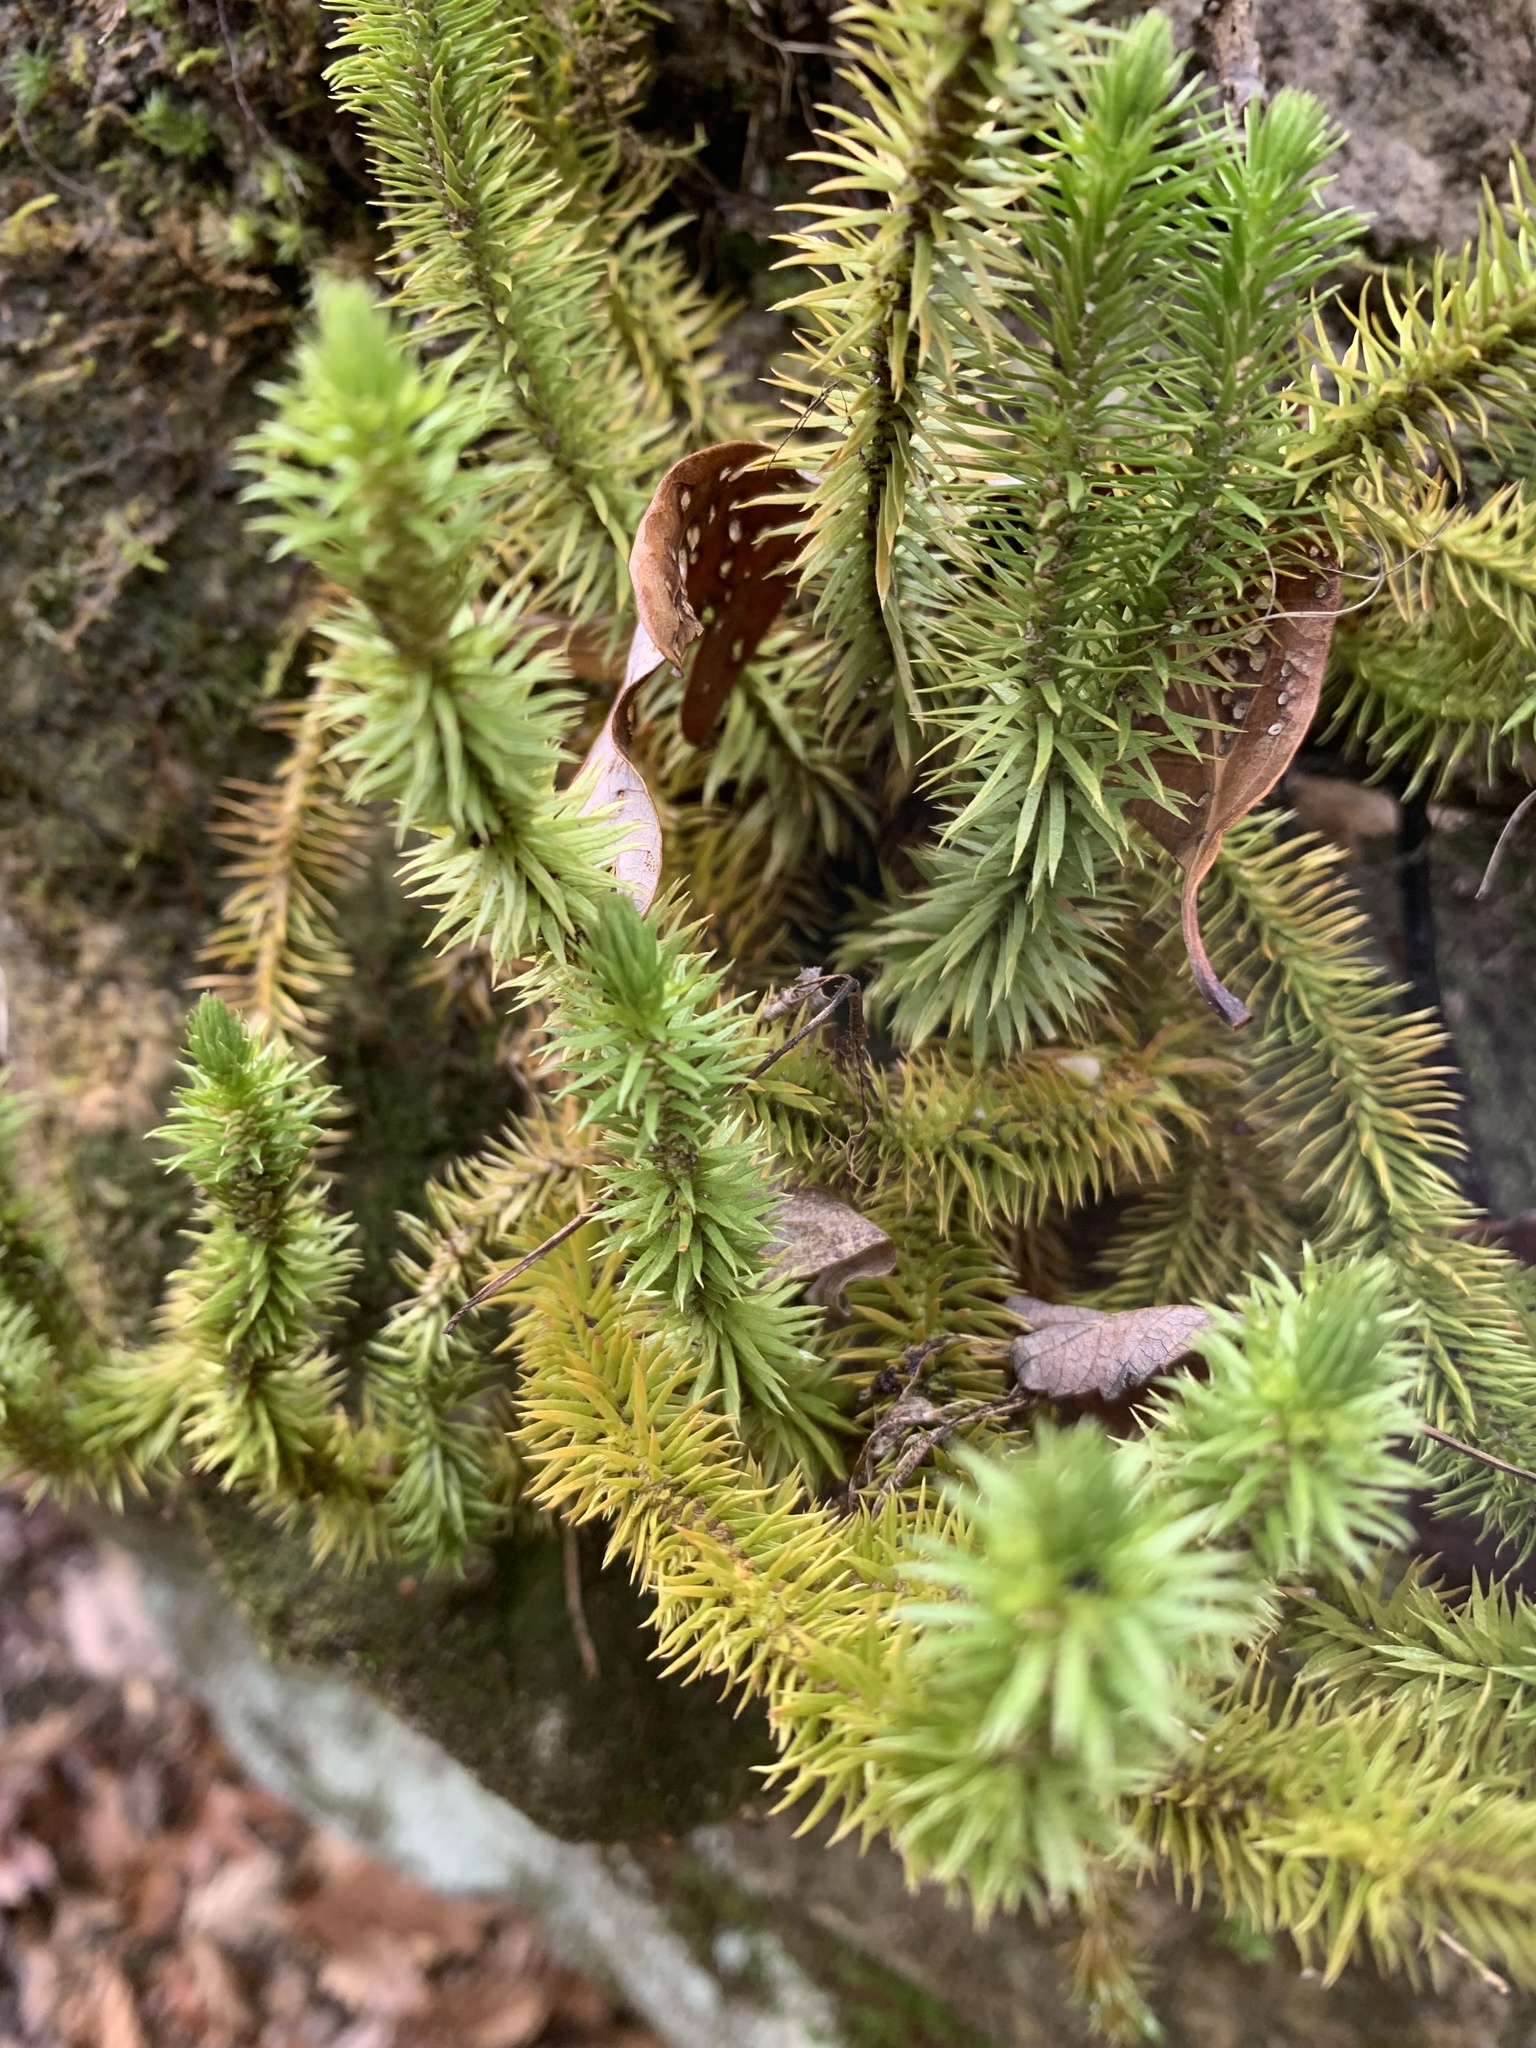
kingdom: Plantae
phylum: Tracheophyta
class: Lycopodiopsida
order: Lycopodiales
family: Lycopodiaceae
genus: Huperzia
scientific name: Huperzia porophila
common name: Rock clubmoss
